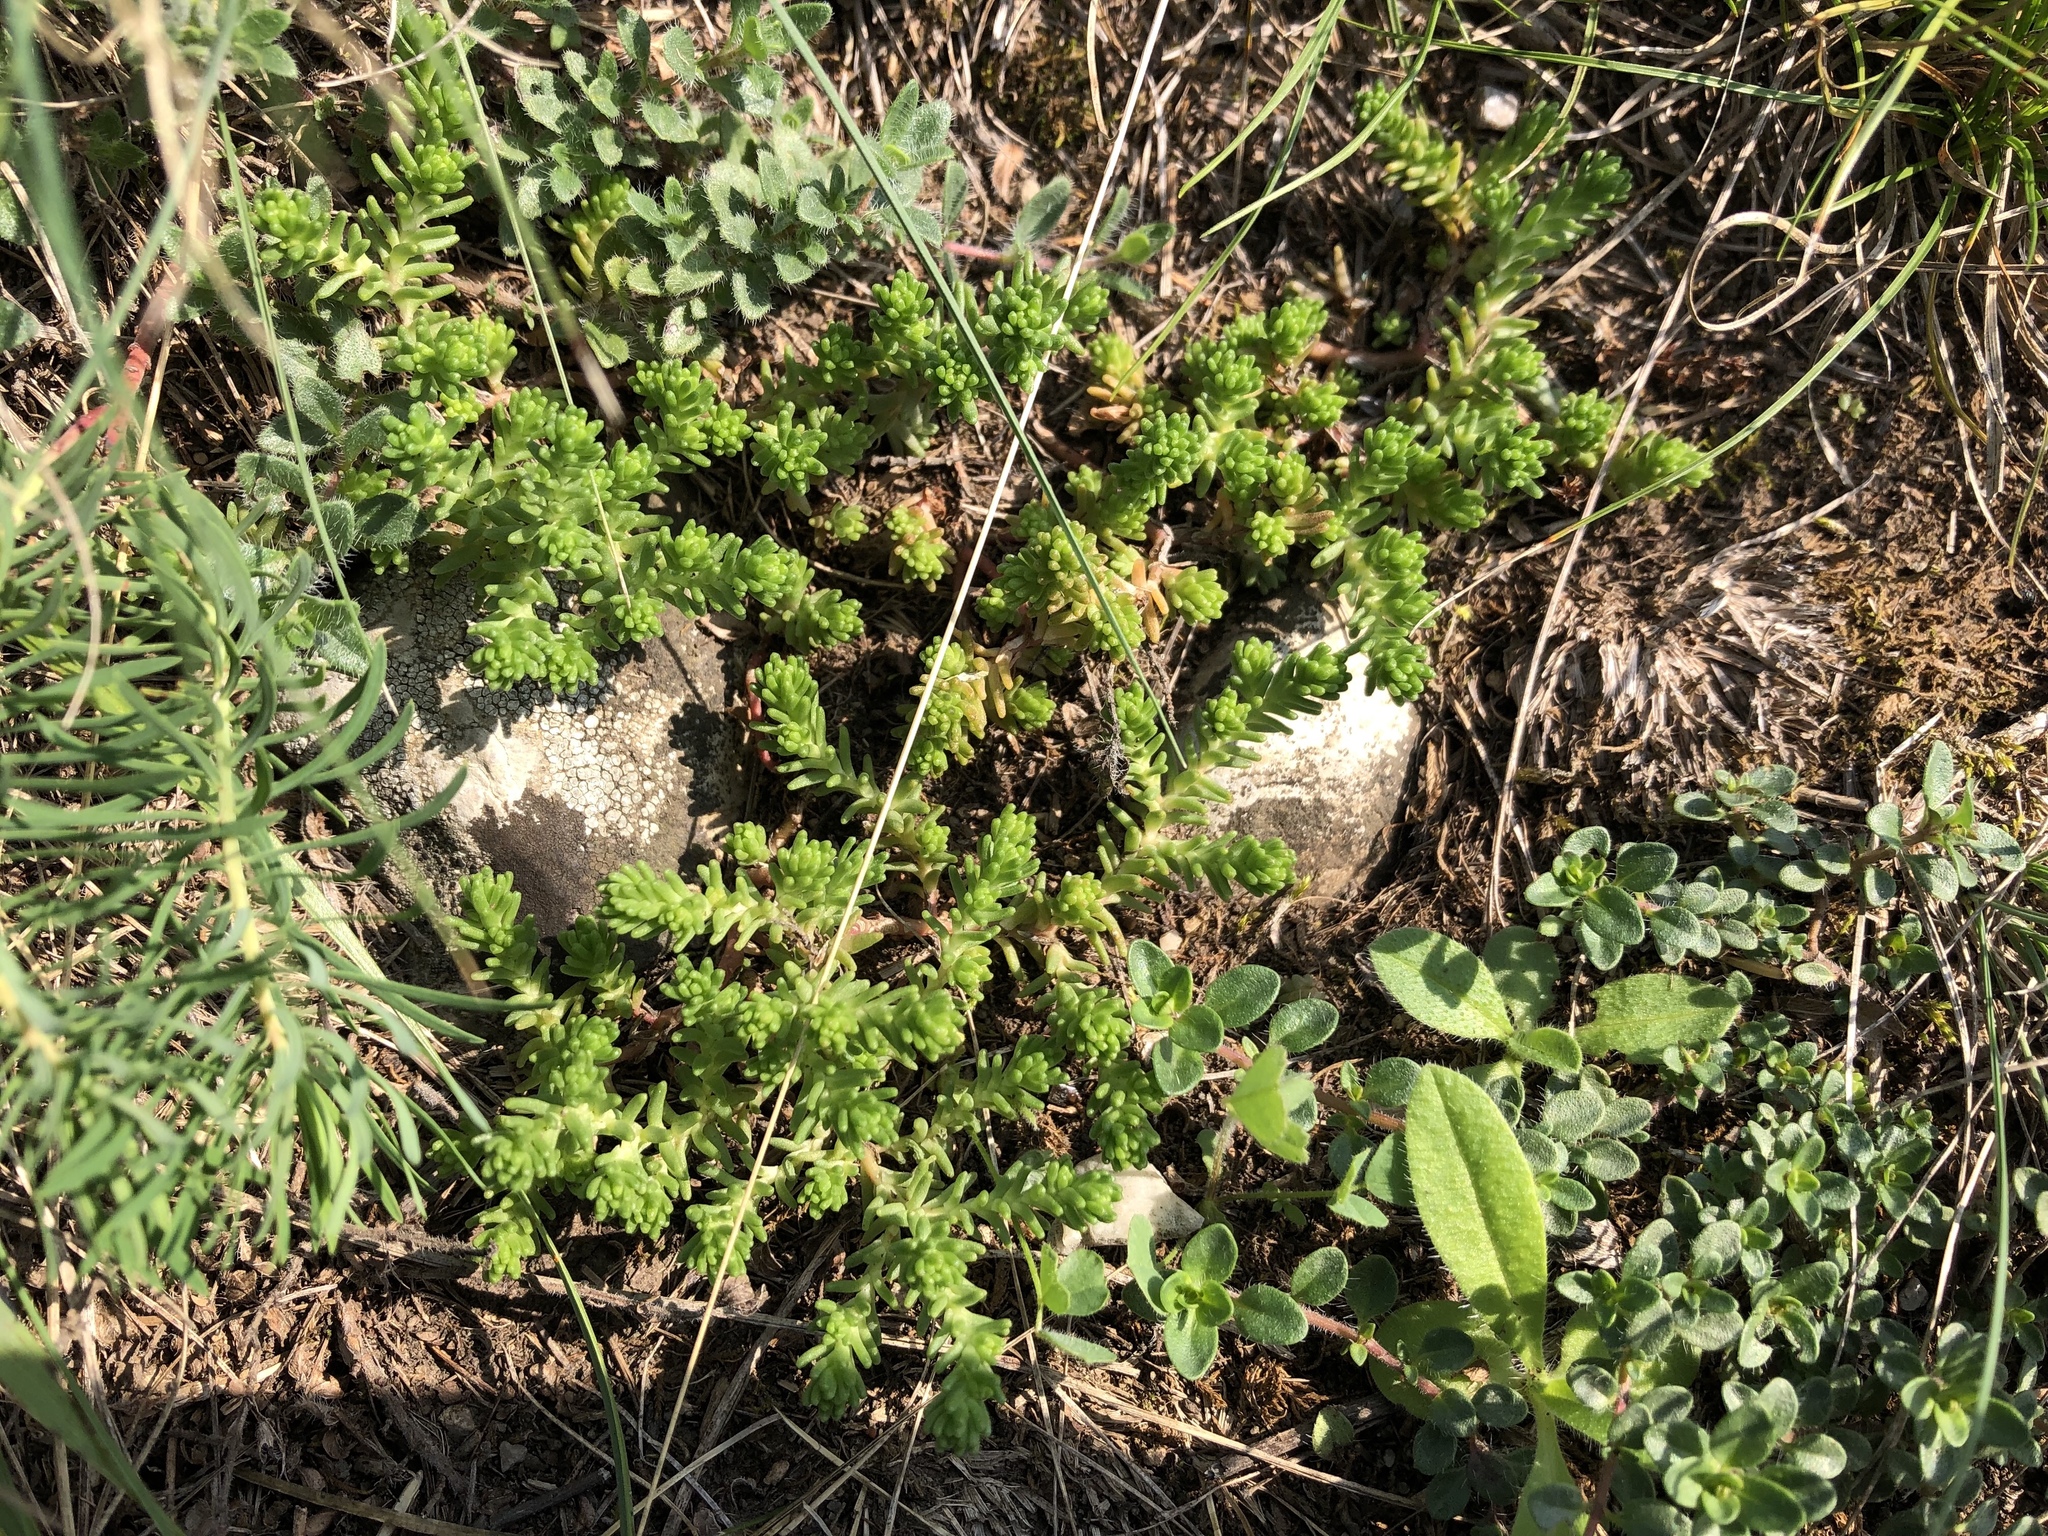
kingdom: Plantae
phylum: Tracheophyta
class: Magnoliopsida
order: Saxifragales
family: Crassulaceae
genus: Sedum
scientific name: Sedum sexangulare
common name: Tasteless stonecrop
